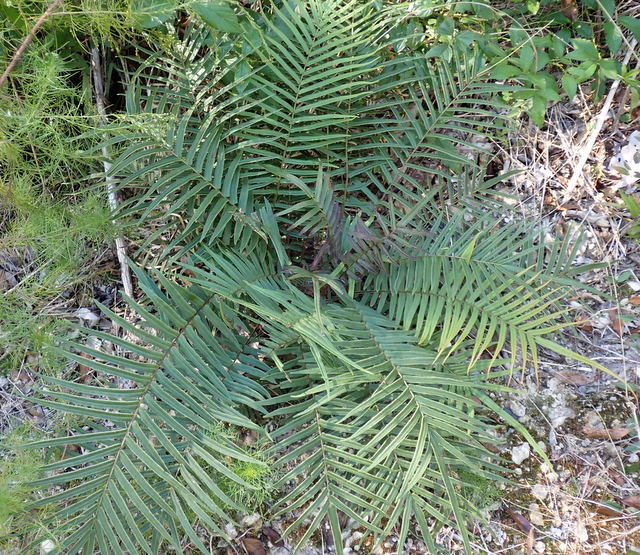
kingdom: Plantae
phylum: Tracheophyta
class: Polypodiopsida
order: Polypodiales
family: Pteridaceae
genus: Pteris
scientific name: Pteris vittata
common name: Ladder brake
